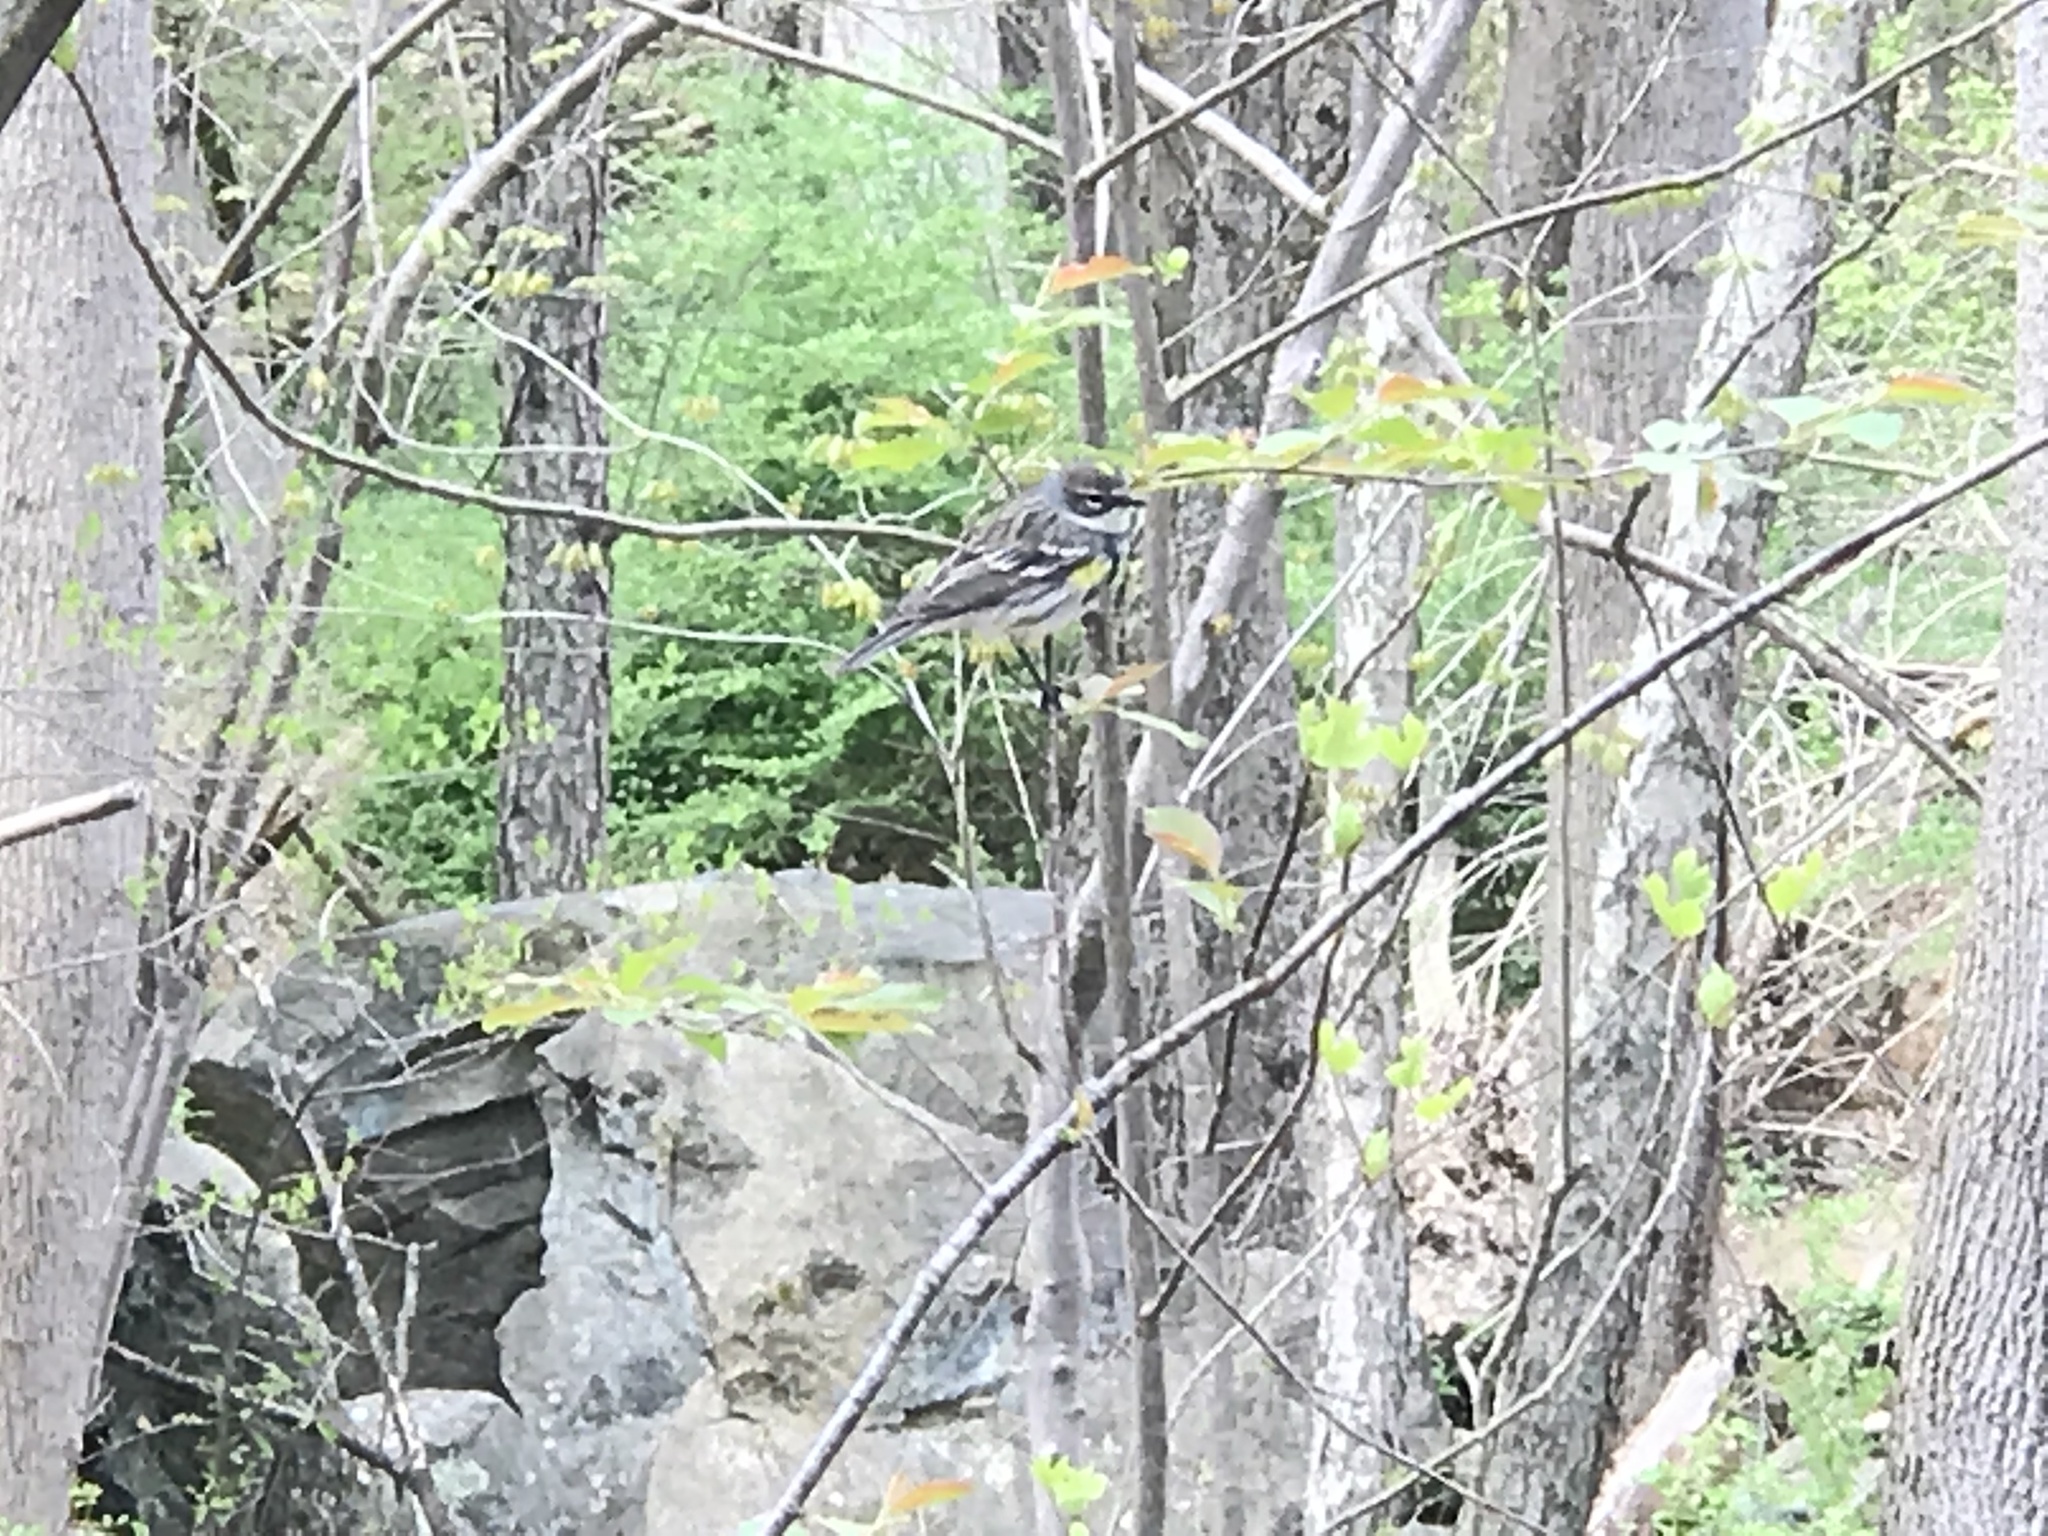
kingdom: Animalia
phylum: Chordata
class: Aves
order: Passeriformes
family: Parulidae
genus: Setophaga
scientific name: Setophaga coronata
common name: Myrtle warbler
